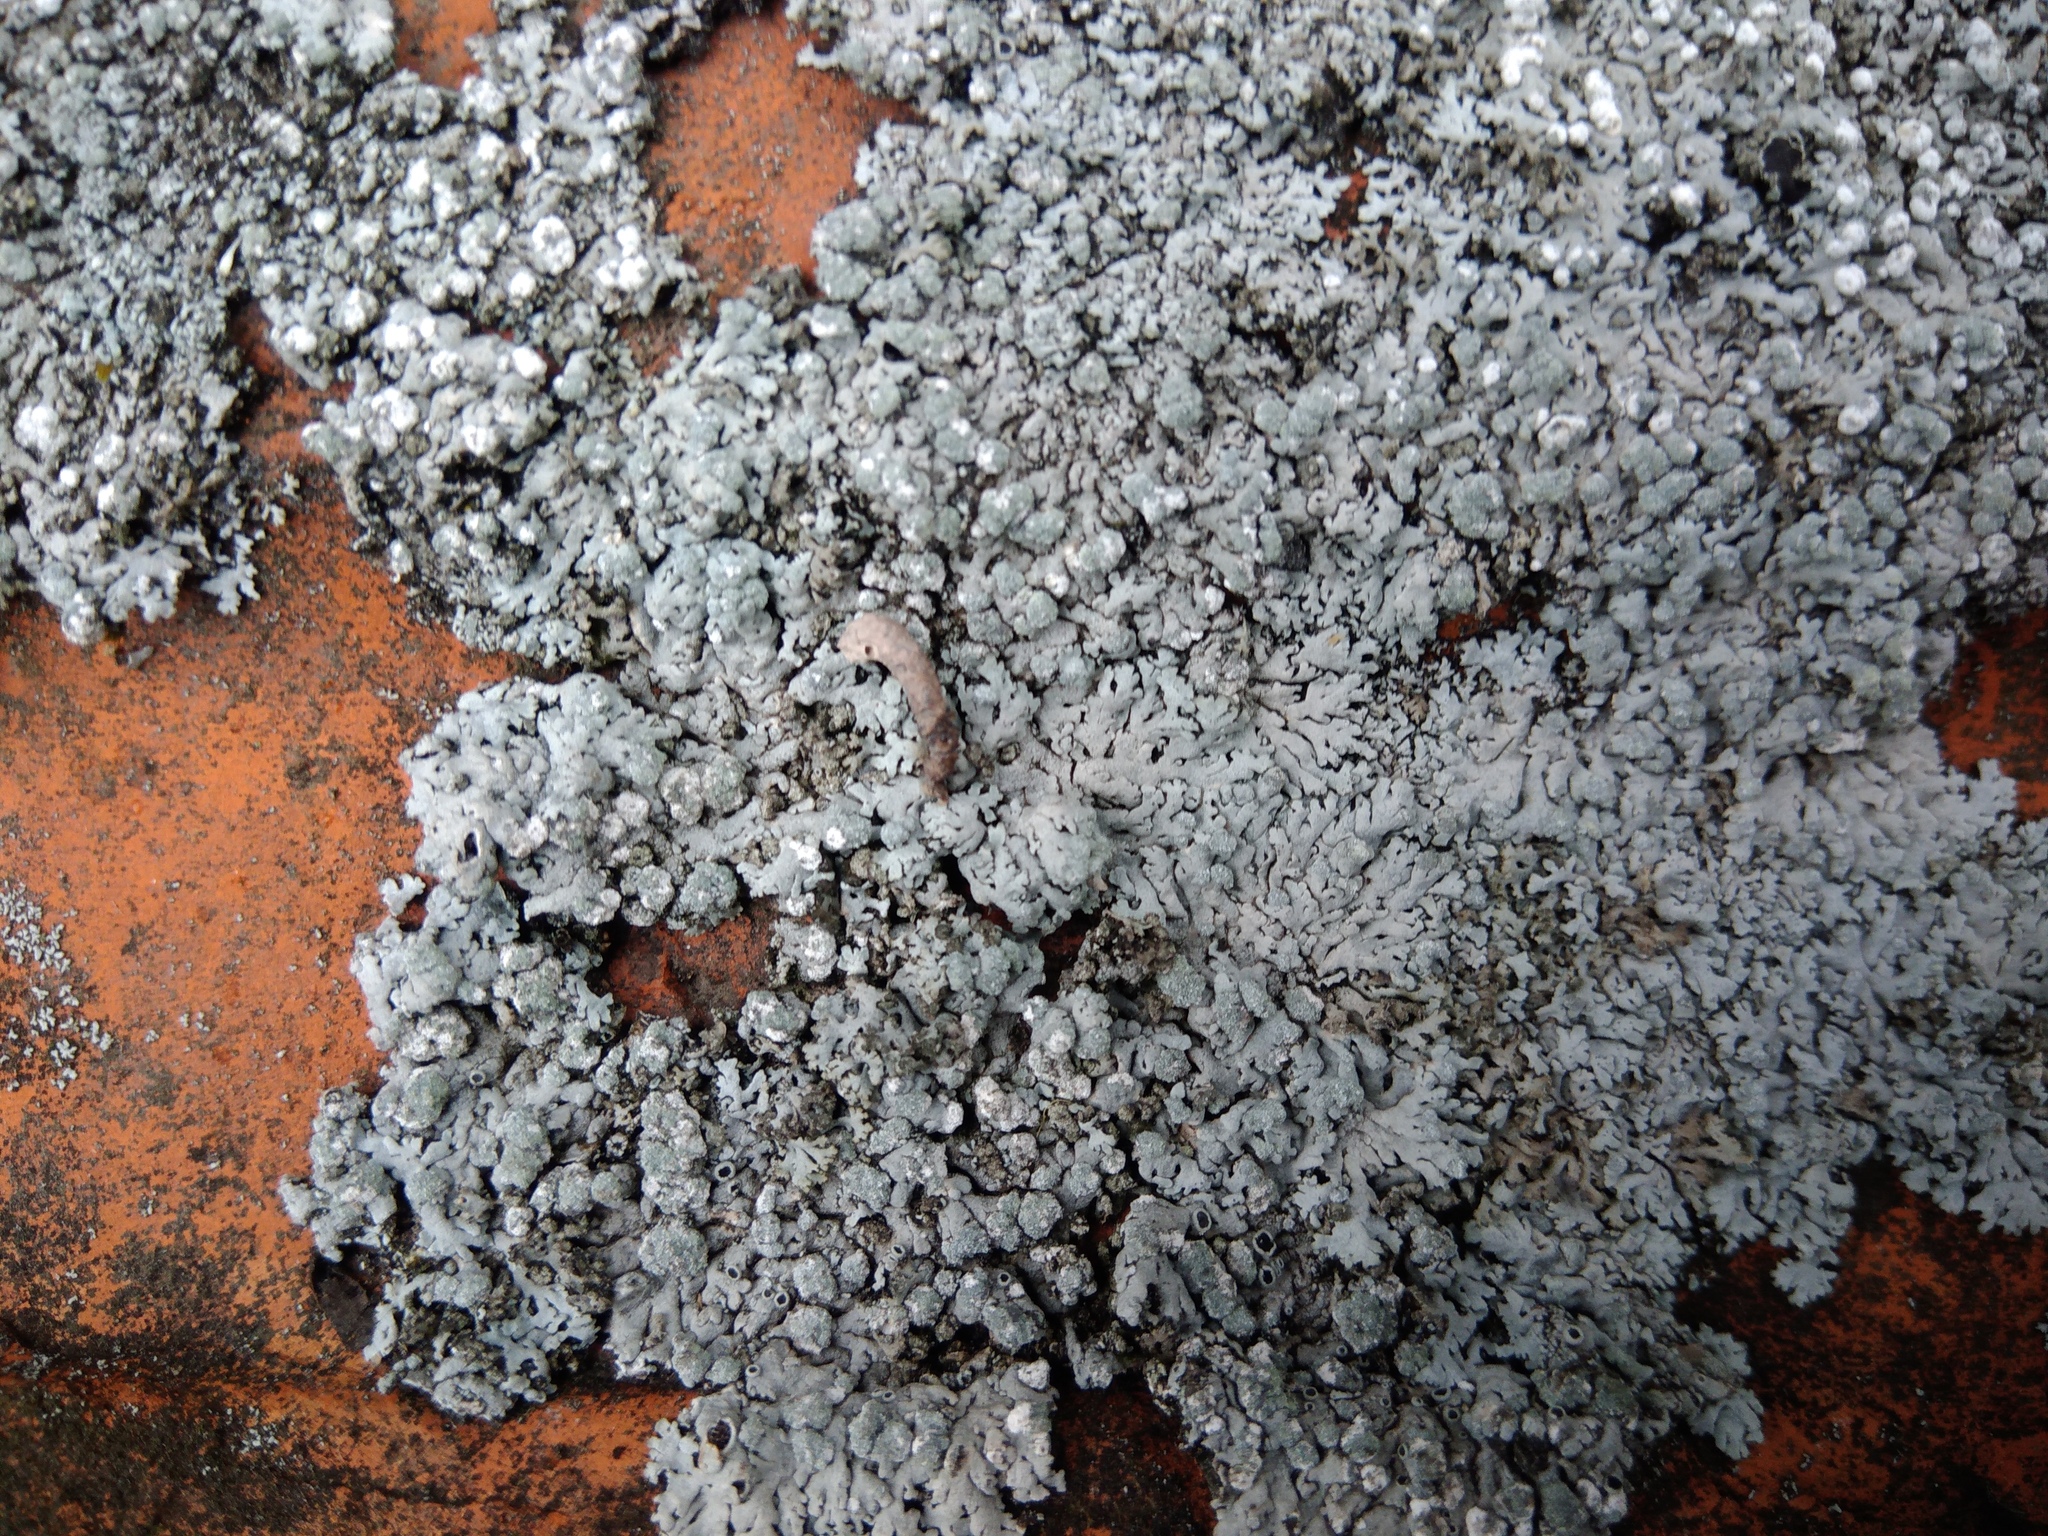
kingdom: Fungi
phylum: Ascomycota
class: Lecanoromycetes
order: Caliciales
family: Physciaceae
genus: Physcia
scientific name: Physcia caesia
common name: Blue-gray rosette lichen
